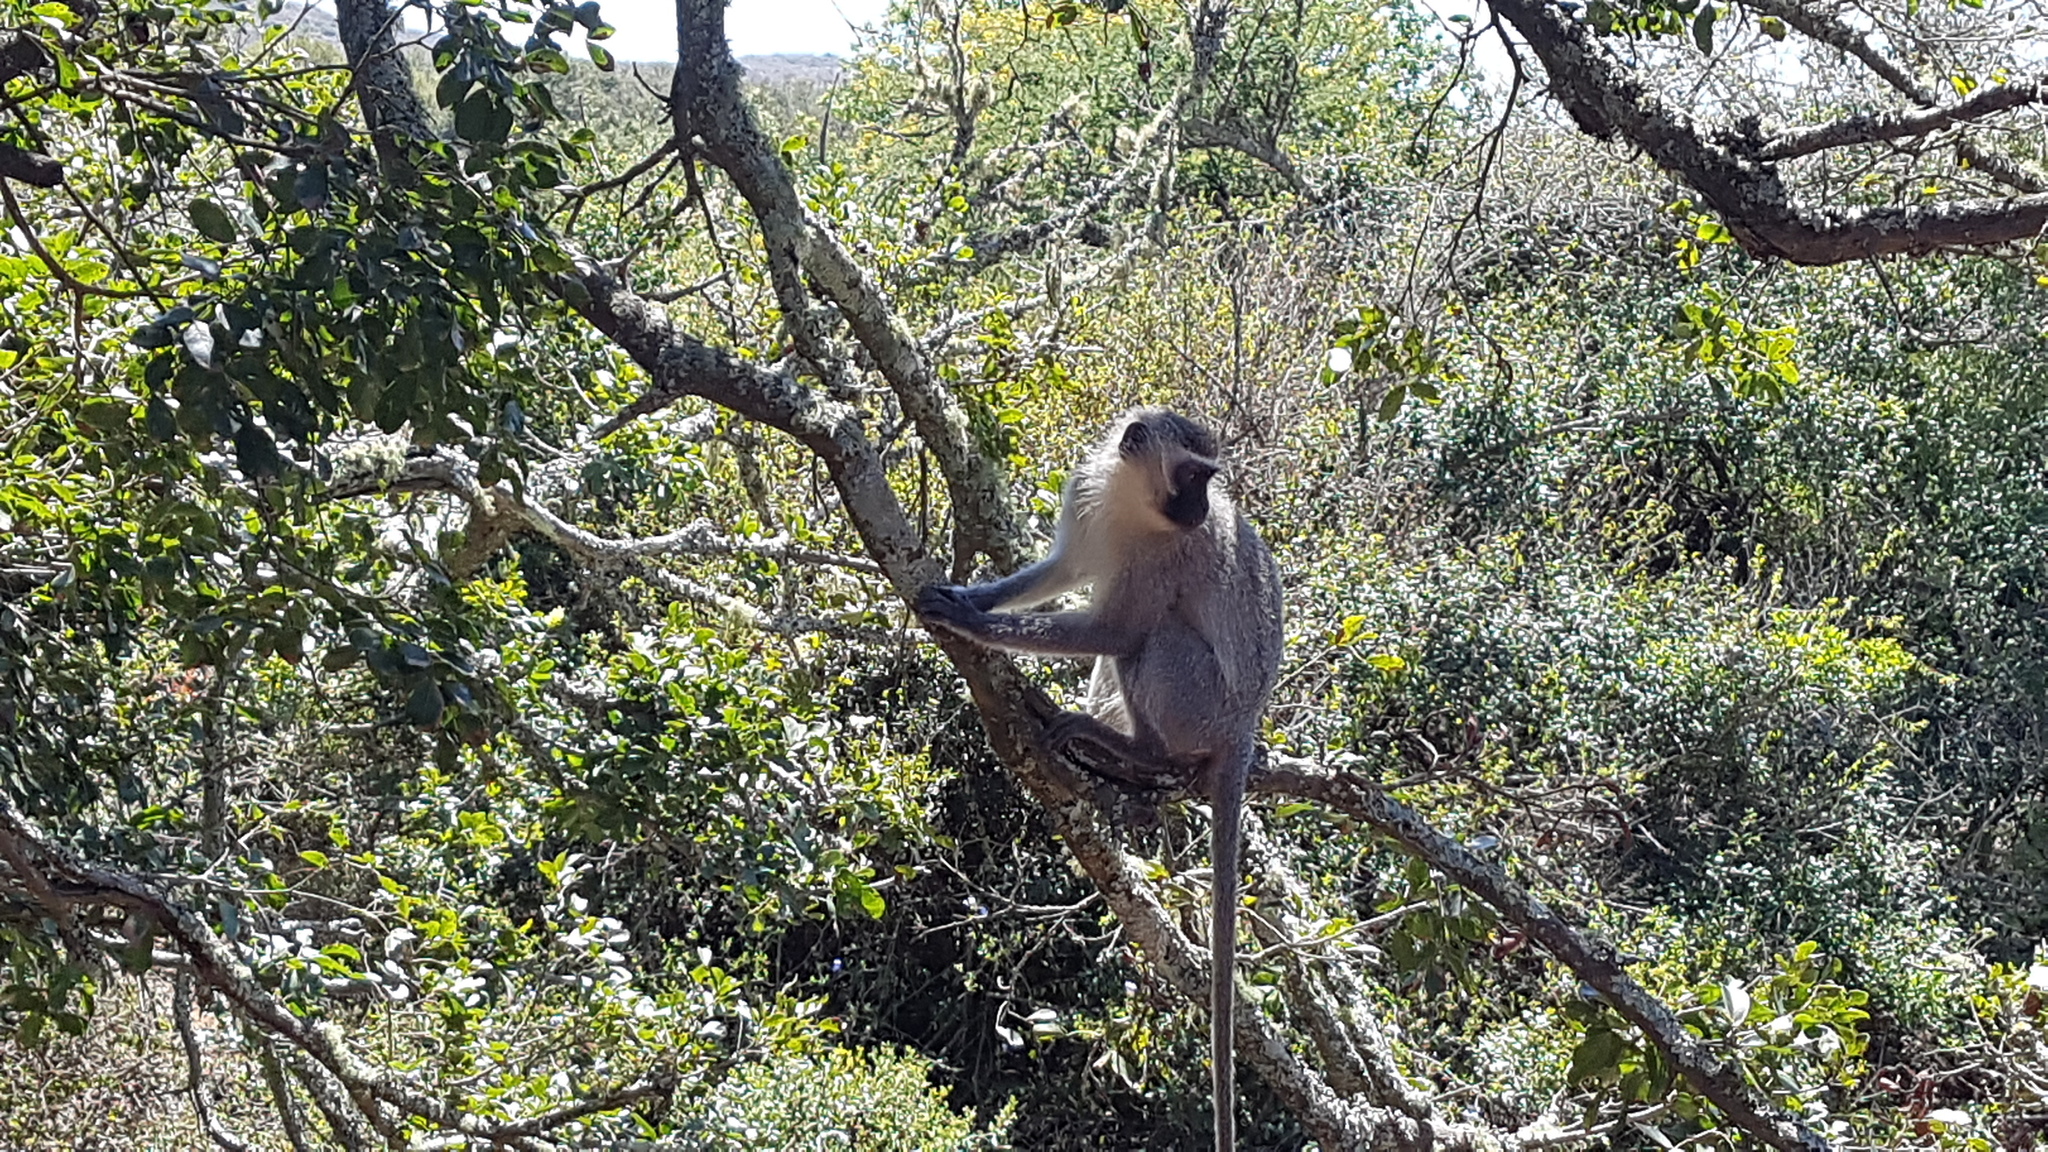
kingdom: Animalia
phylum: Chordata
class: Mammalia
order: Primates
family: Cercopithecidae
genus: Chlorocebus
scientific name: Chlorocebus pygerythrus
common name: Vervet monkey
